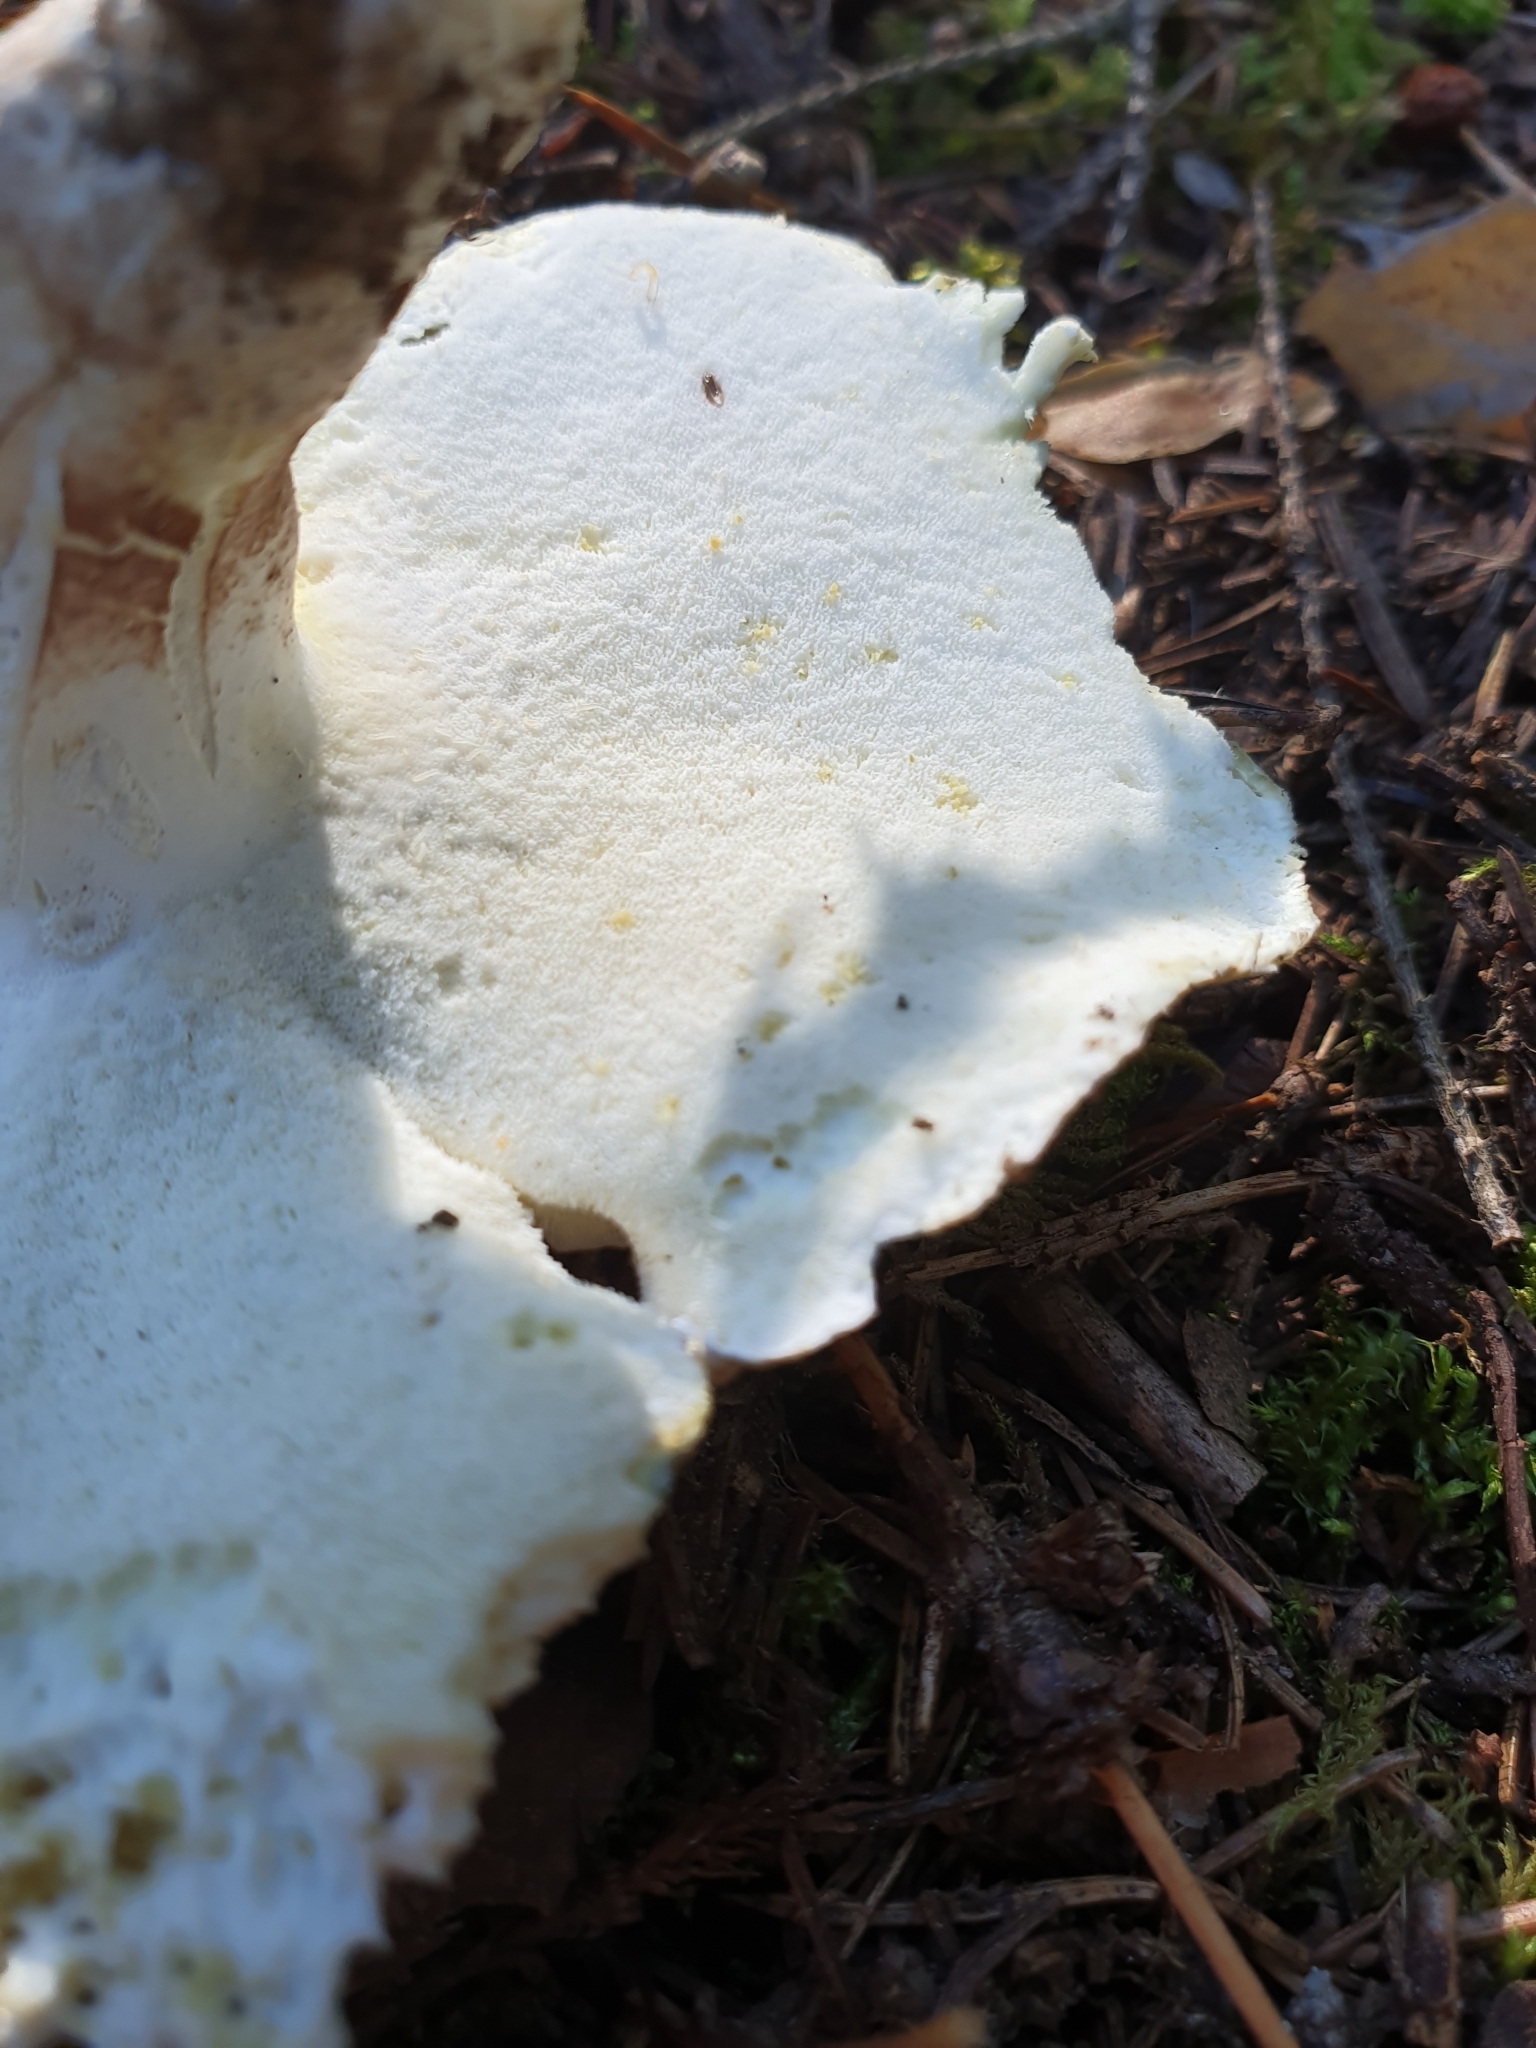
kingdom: Fungi
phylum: Basidiomycota
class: Agaricomycetes
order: Russulales
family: Albatrellaceae
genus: Albatrellopsis
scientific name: Albatrellopsis confluens
